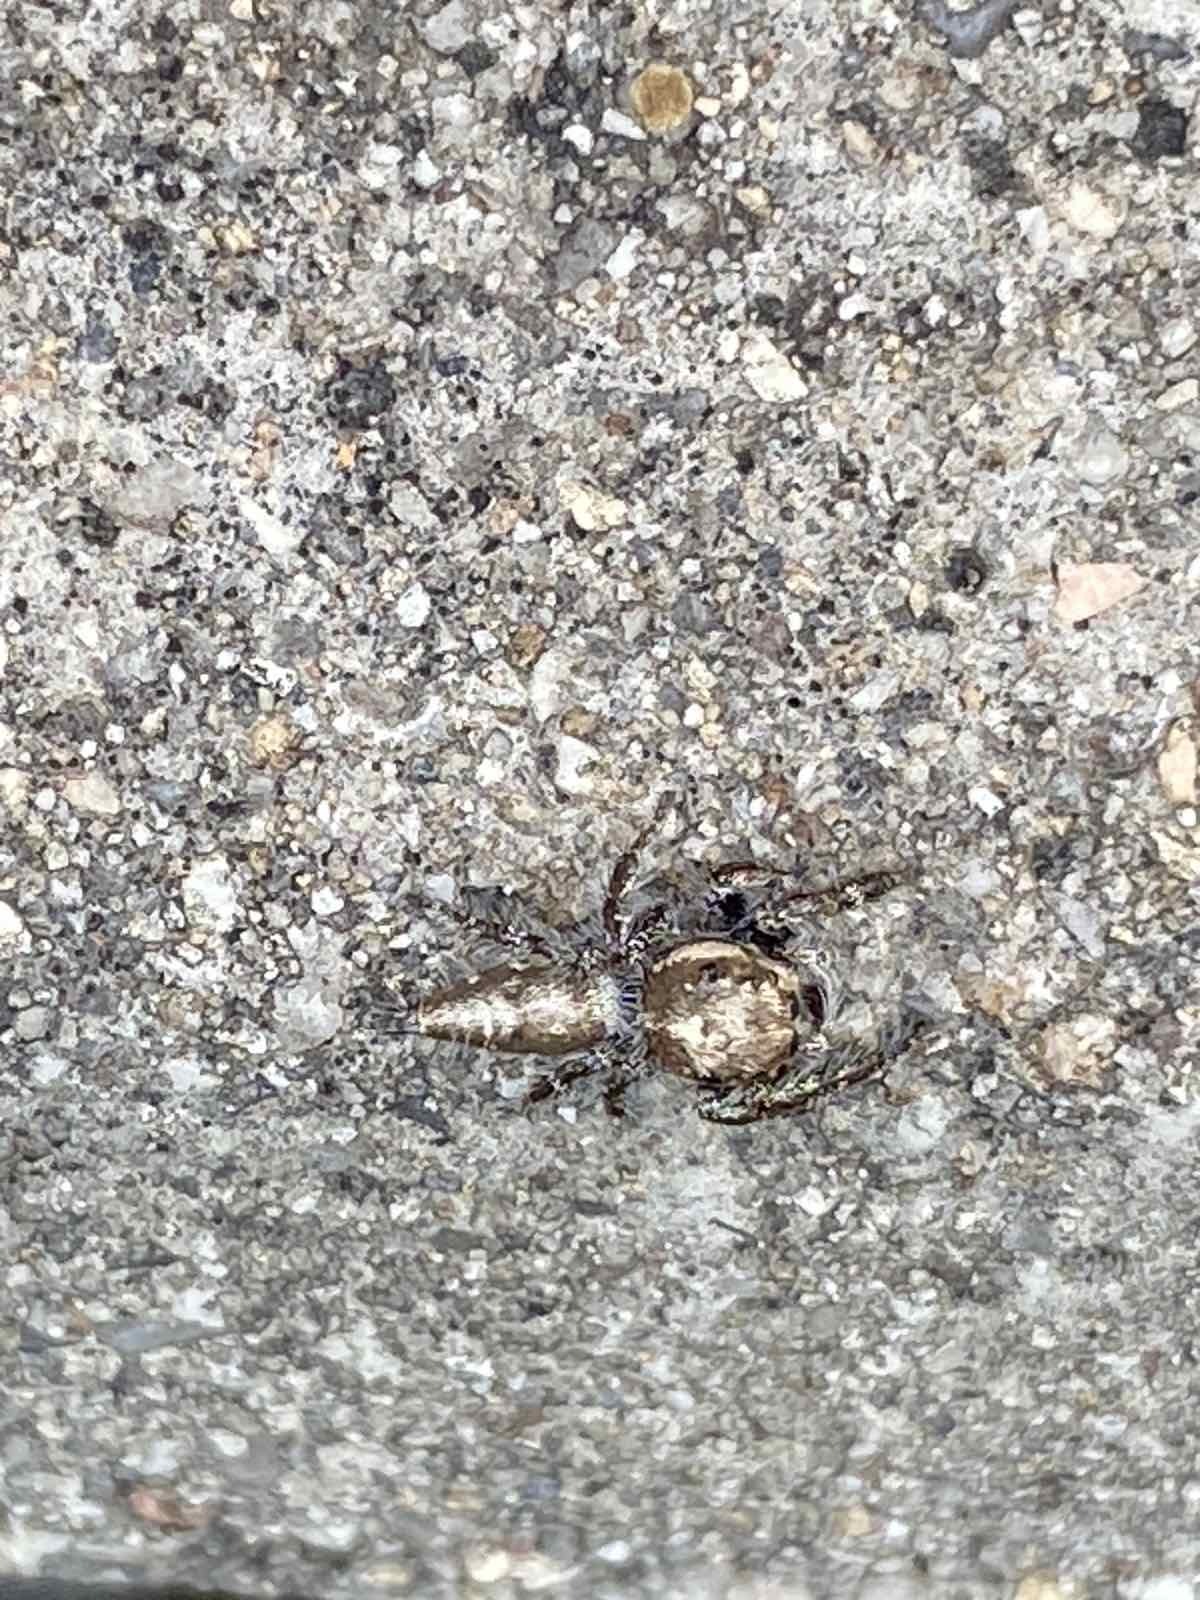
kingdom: Animalia
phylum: Arthropoda
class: Arachnida
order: Araneae
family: Salticidae
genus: Hyllus
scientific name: Hyllus semicupreus
